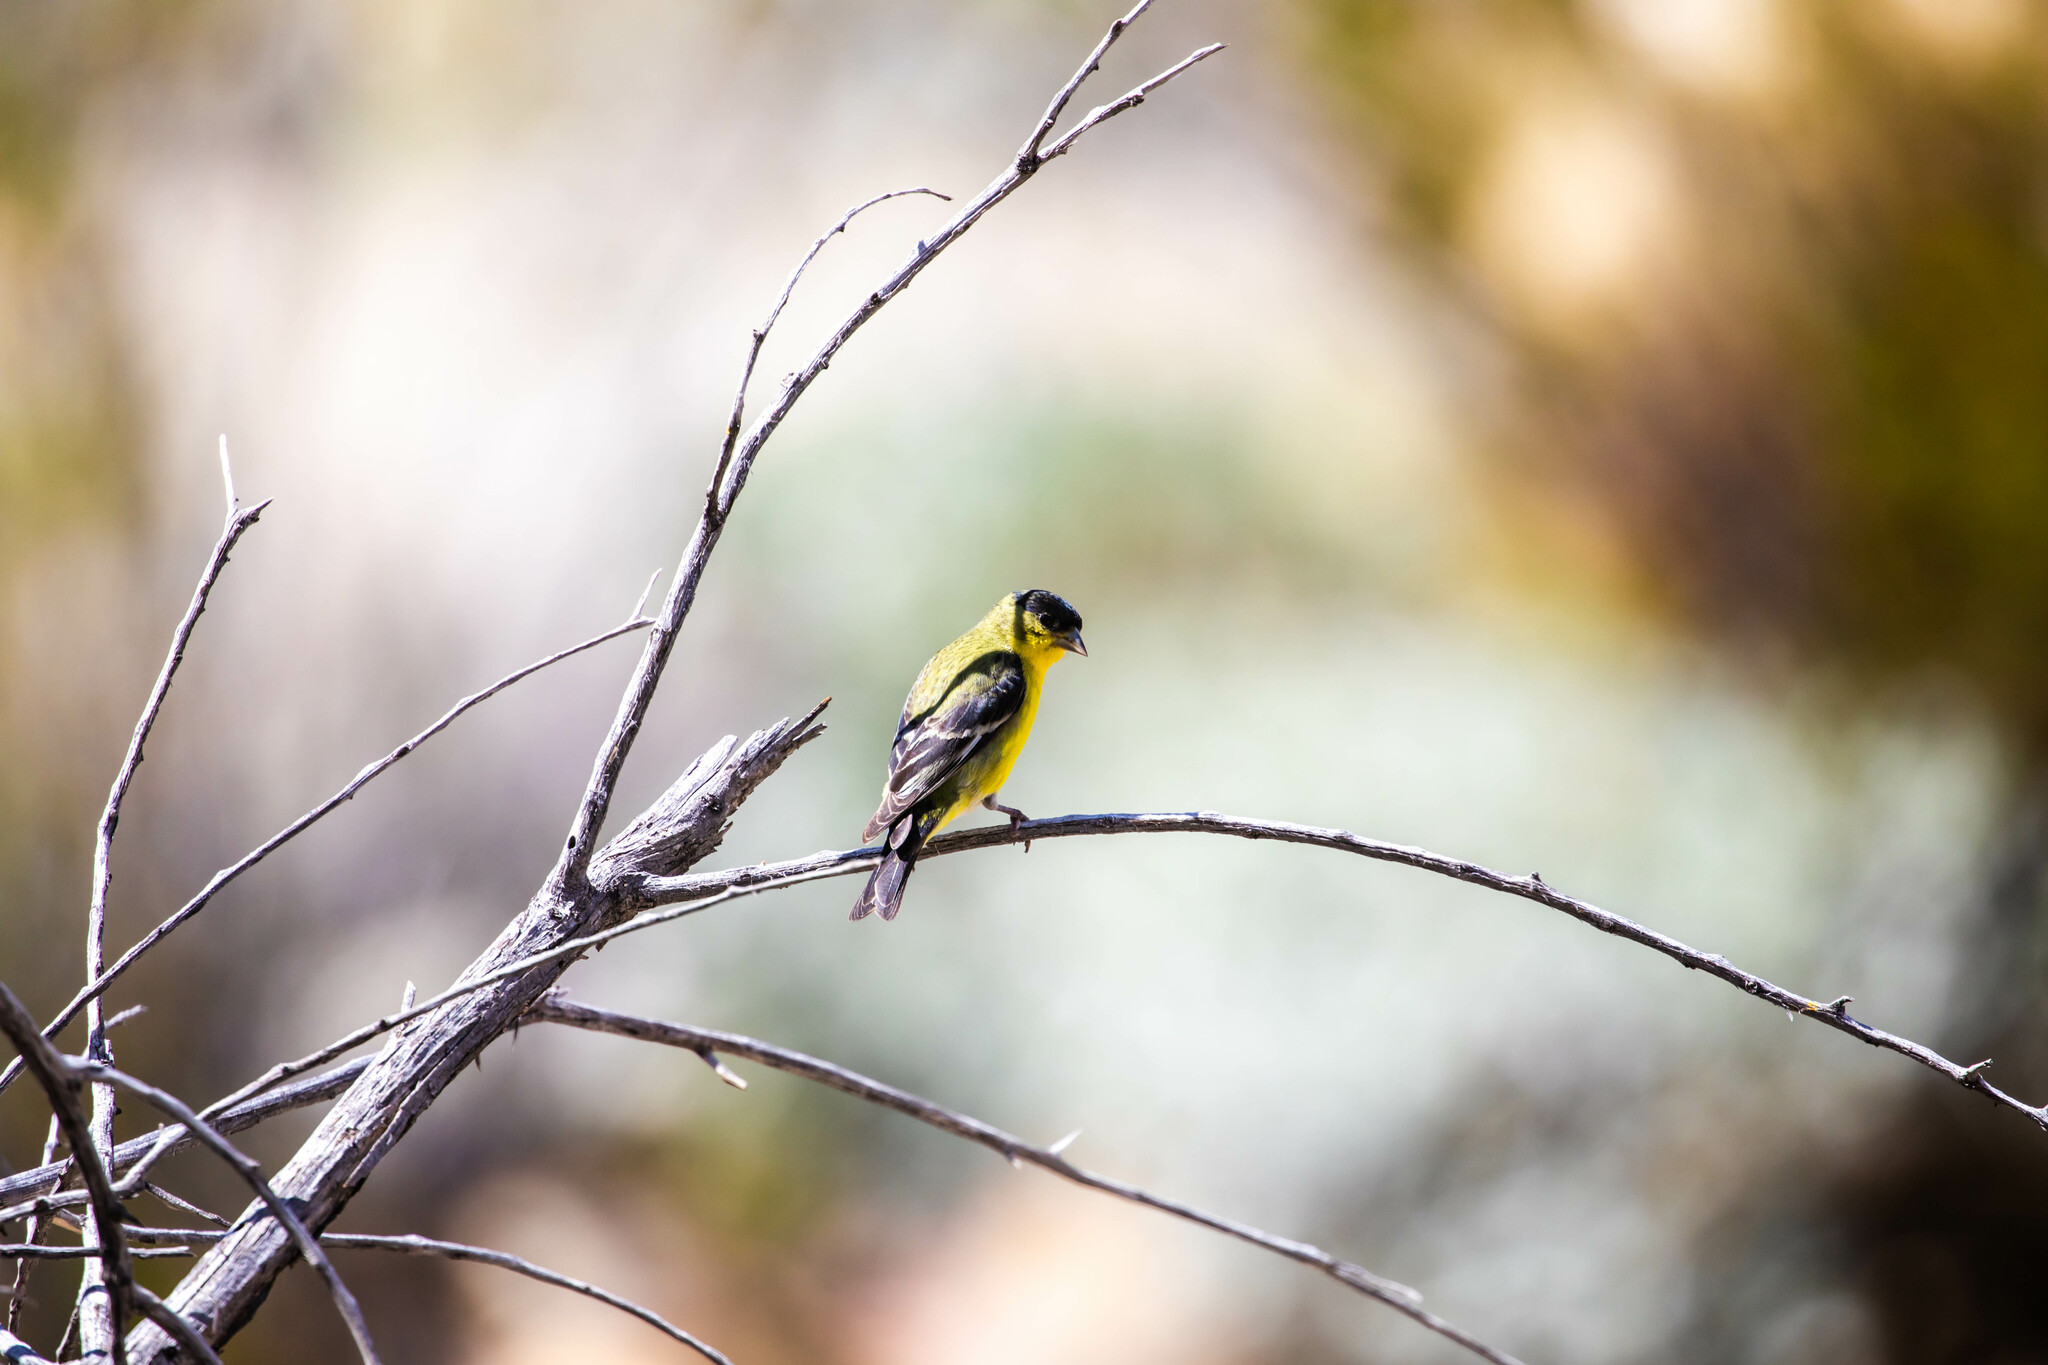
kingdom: Animalia
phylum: Chordata
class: Aves
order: Passeriformes
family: Fringillidae
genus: Spinus
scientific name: Spinus psaltria
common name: Lesser goldfinch
